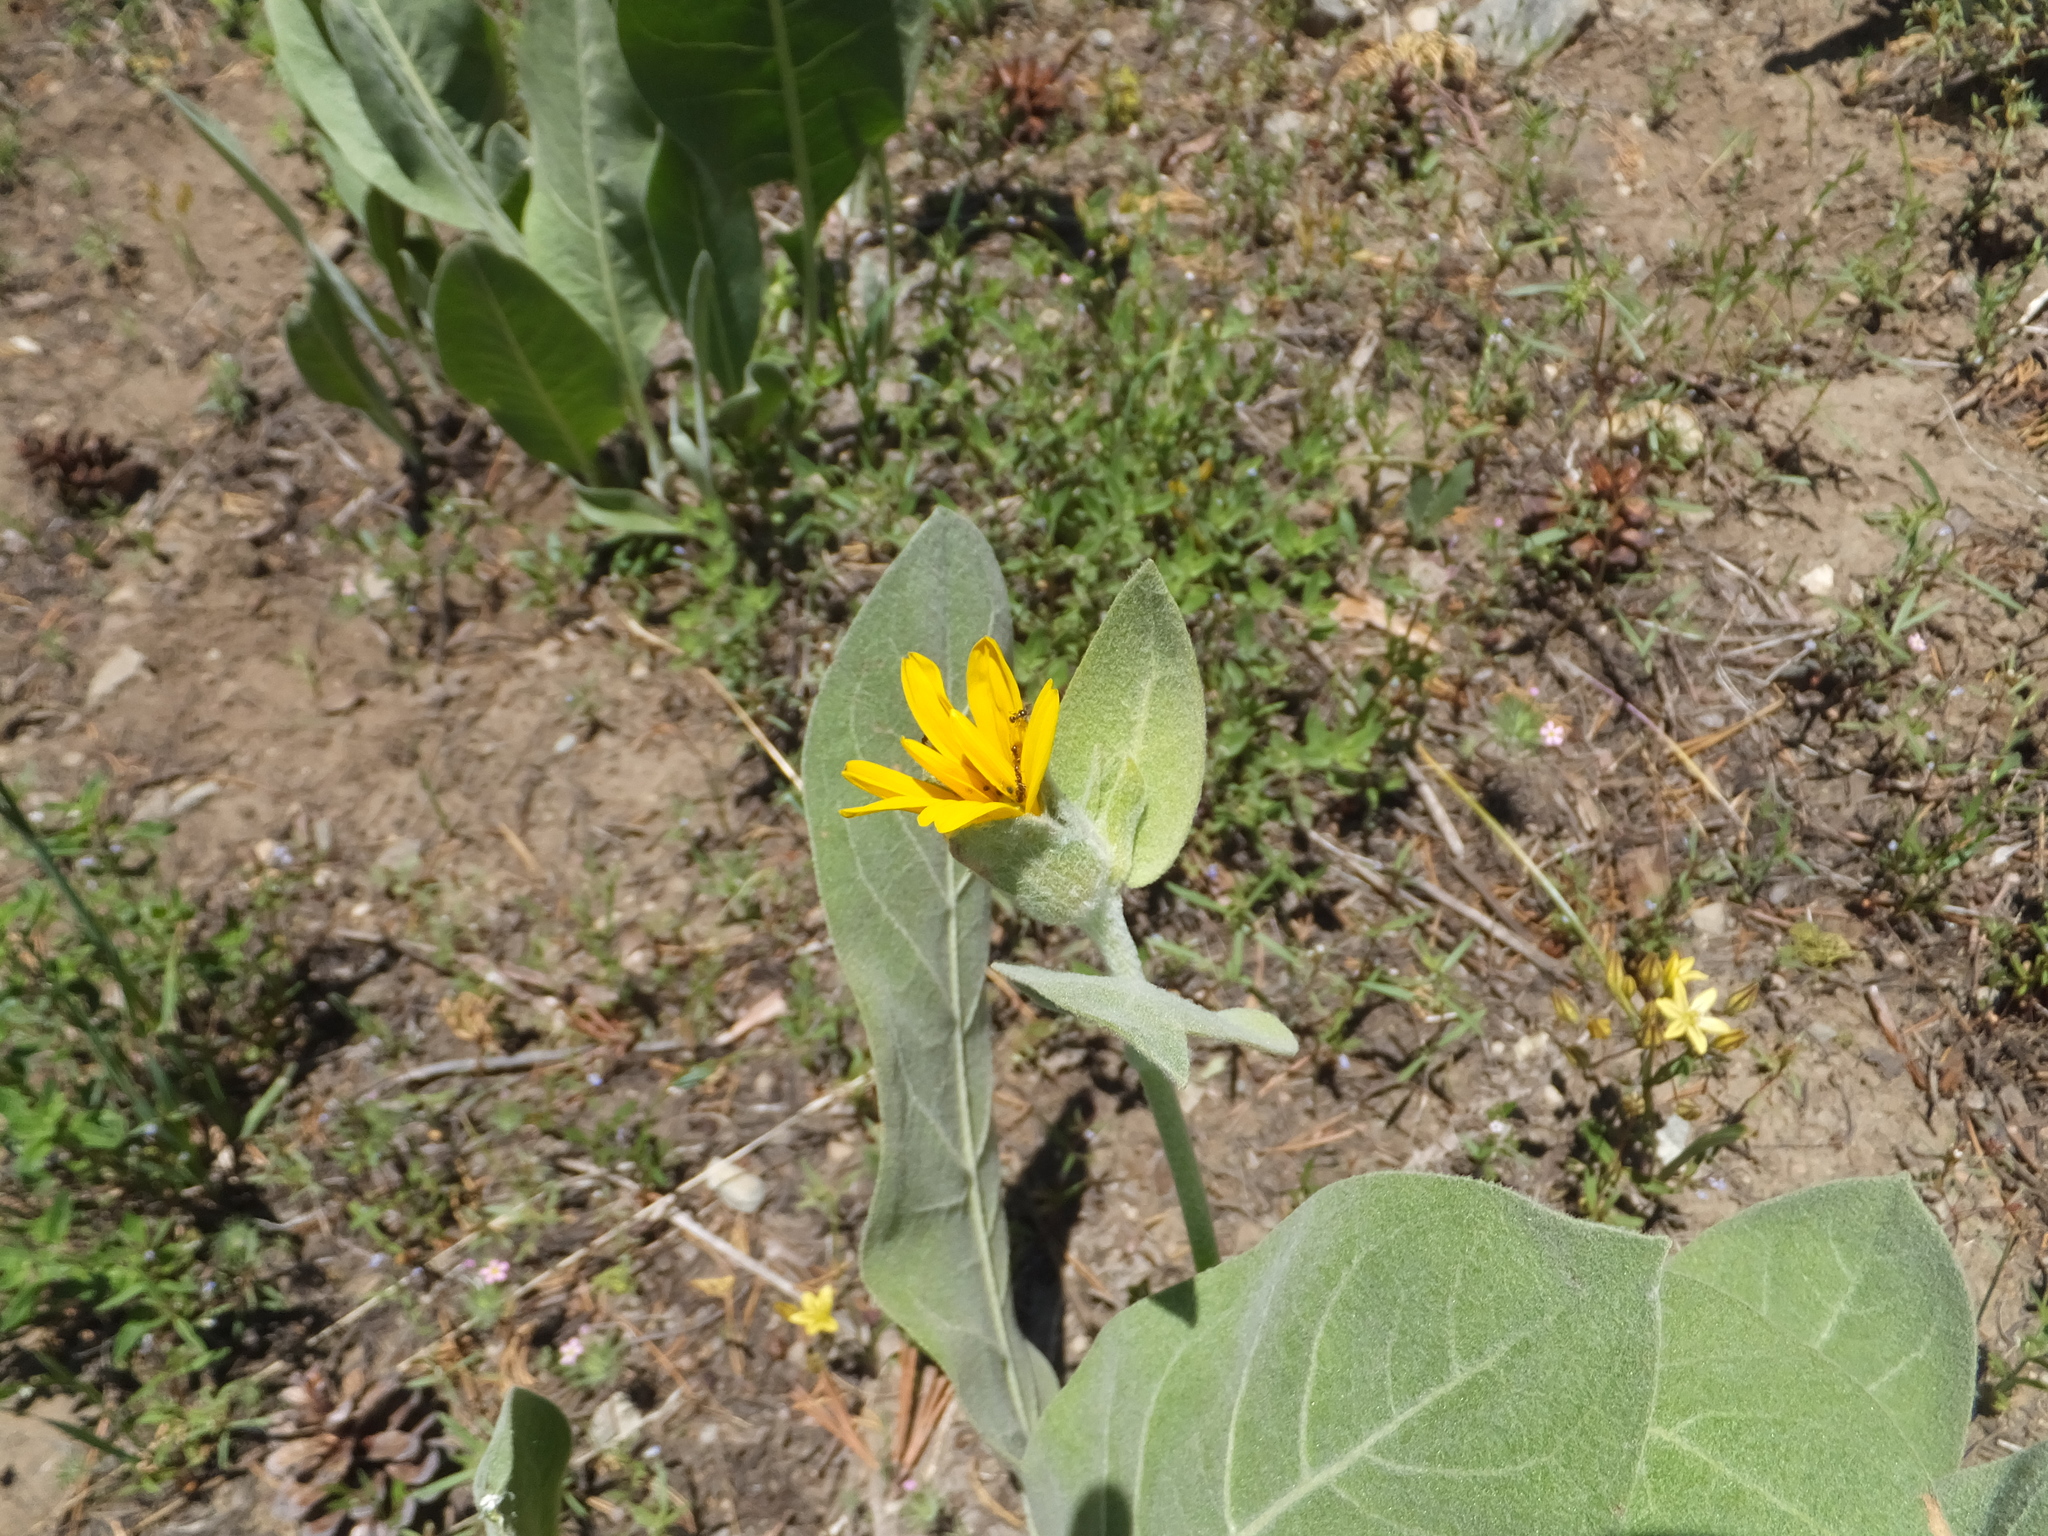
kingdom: Plantae
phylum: Tracheophyta
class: Magnoliopsida
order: Asterales
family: Asteraceae
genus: Wyethia
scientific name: Wyethia mollis
